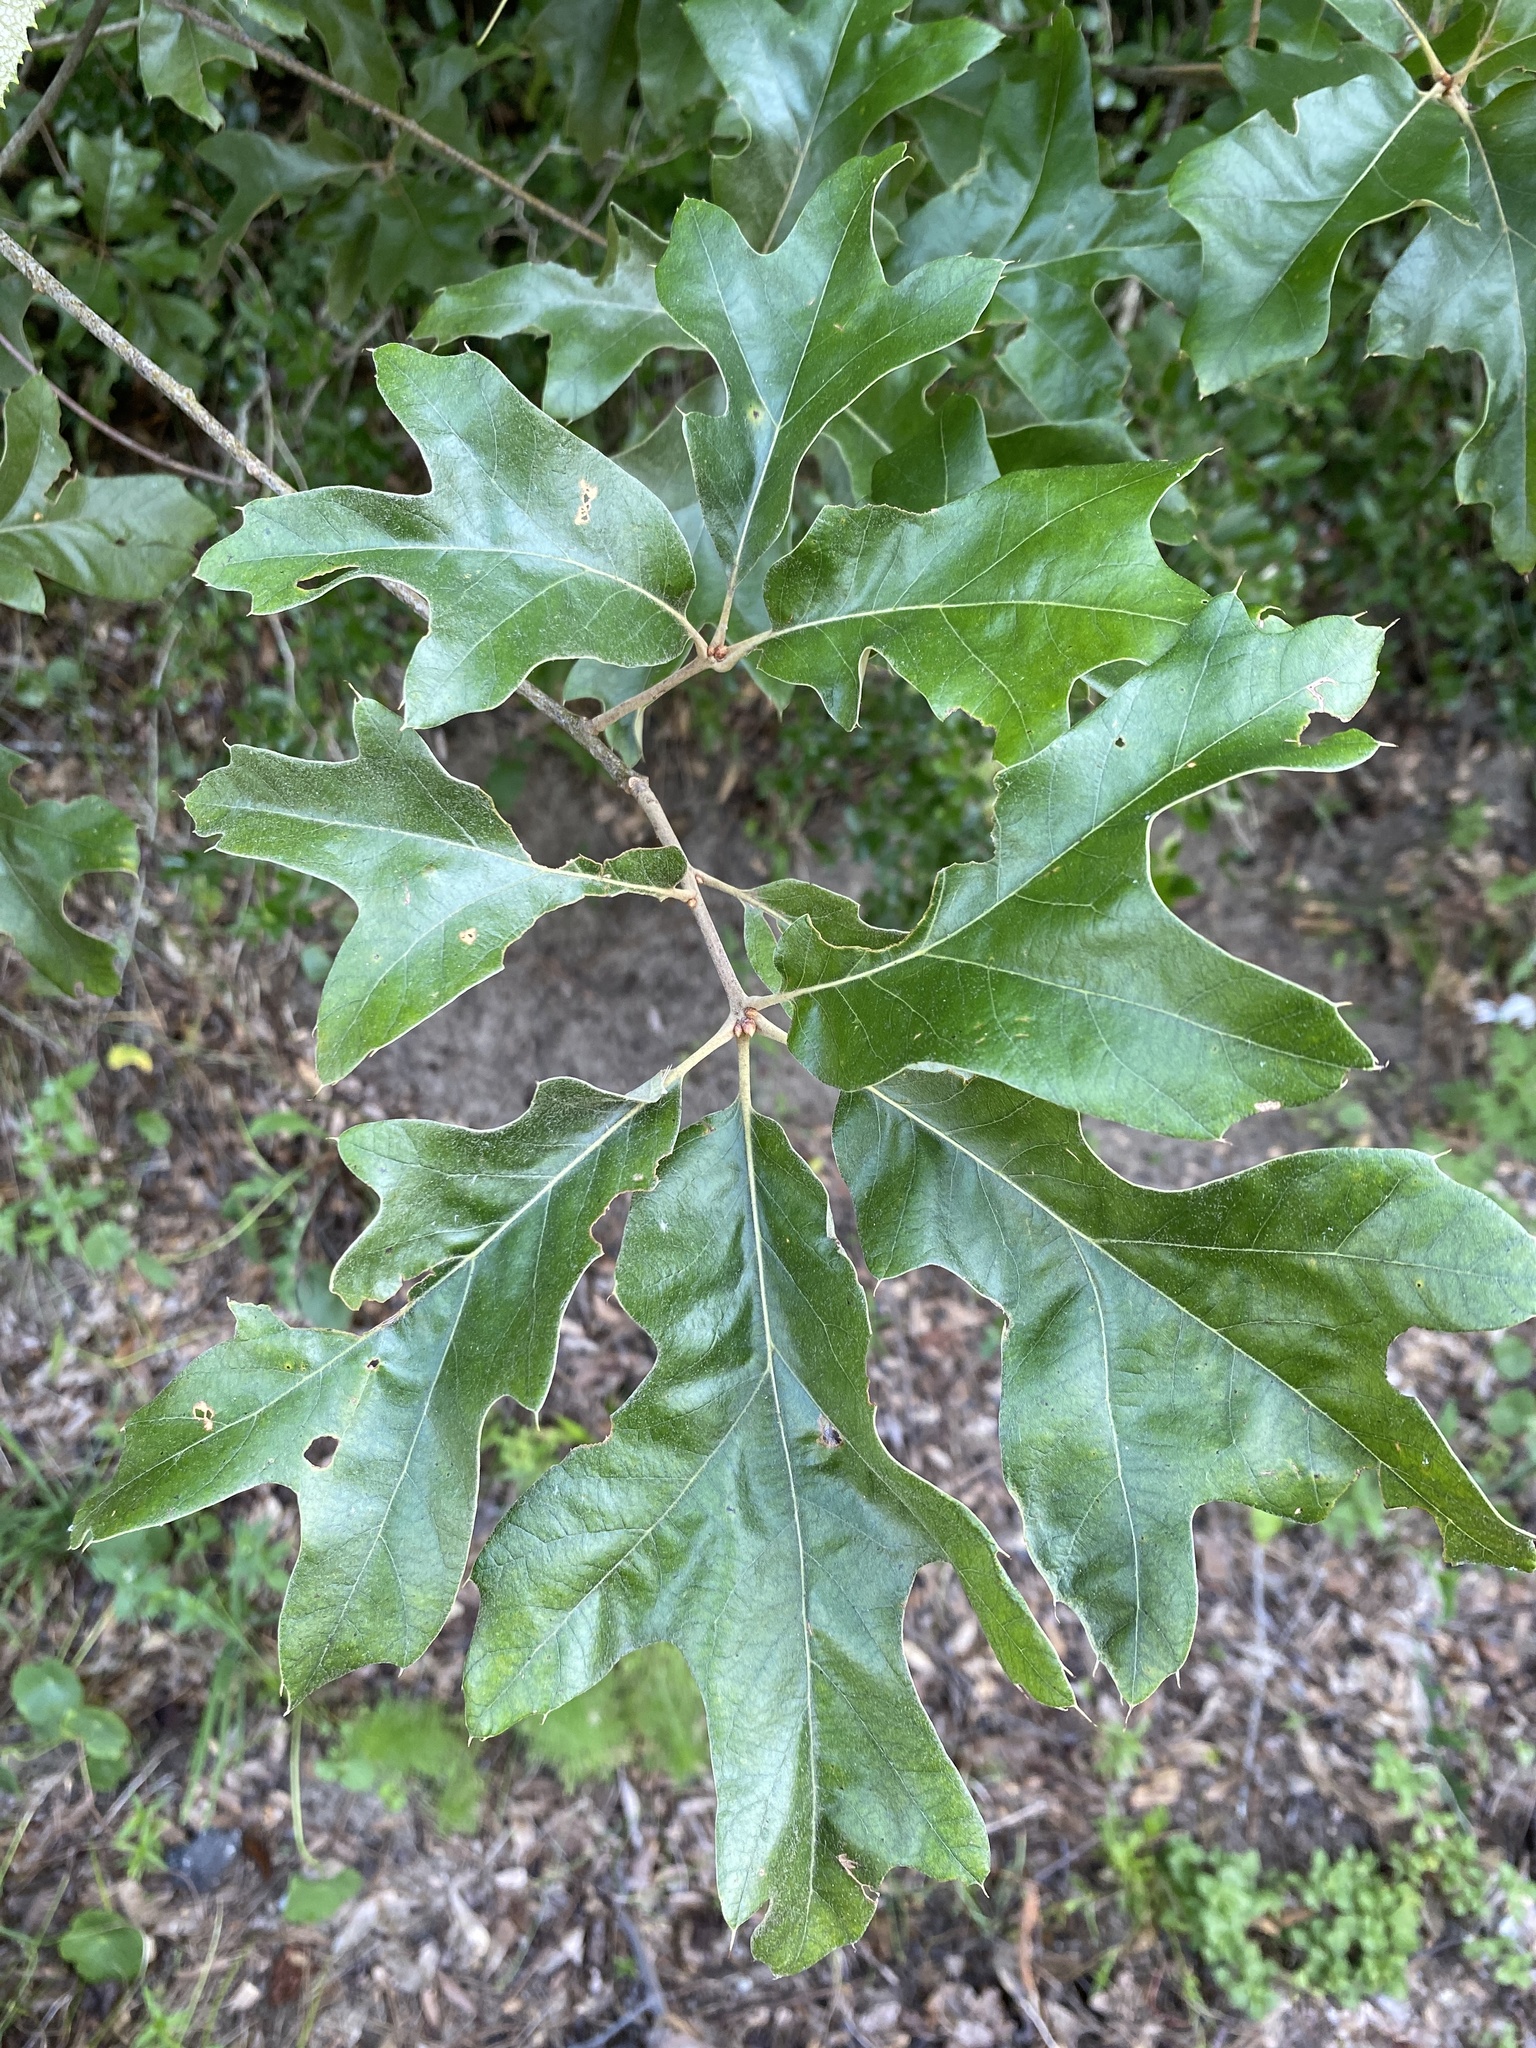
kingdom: Plantae
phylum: Tracheophyta
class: Magnoliopsida
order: Fagales
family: Fagaceae
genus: Quercus
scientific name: Quercus falcata
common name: Southern red oak
